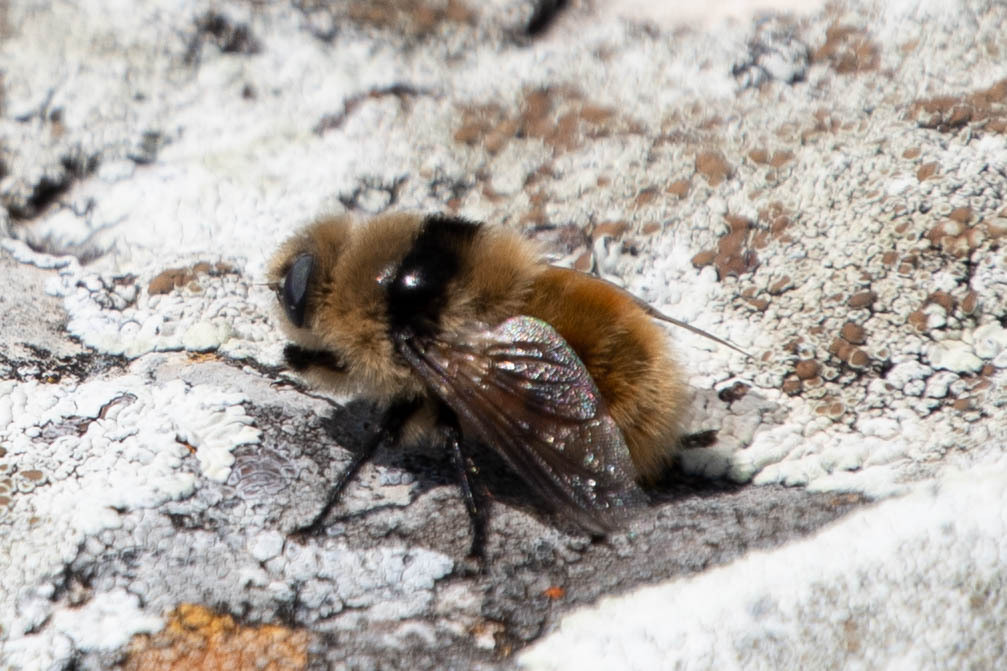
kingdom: Animalia
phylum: Arthropoda
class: Insecta
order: Diptera
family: Oestridae
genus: Cephenemyia
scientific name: Cephenemyia stimulator
